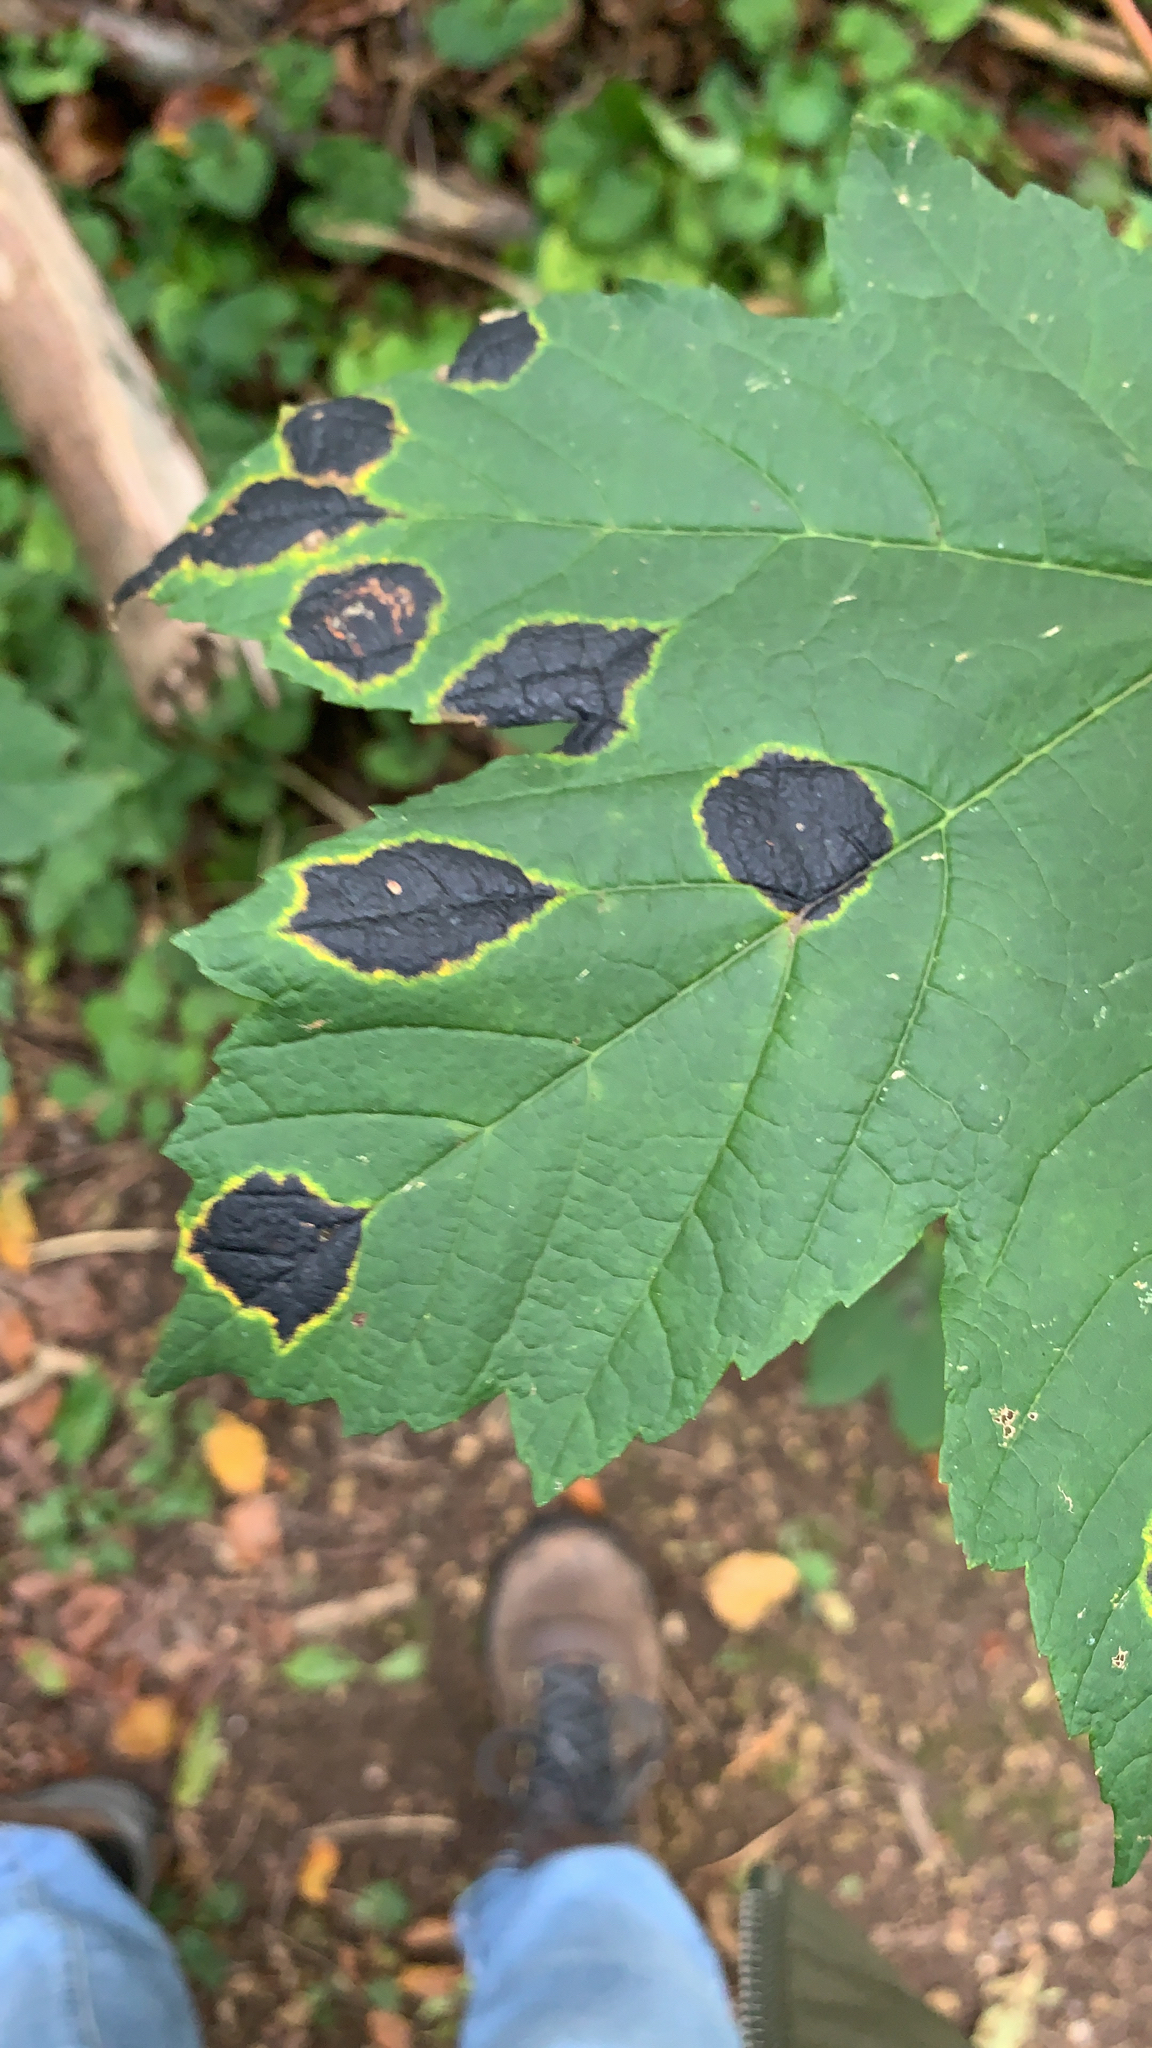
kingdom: Fungi
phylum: Ascomycota
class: Leotiomycetes
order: Rhytismatales
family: Rhytismataceae
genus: Rhytisma
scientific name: Rhytisma acerinum
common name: European tar spot
